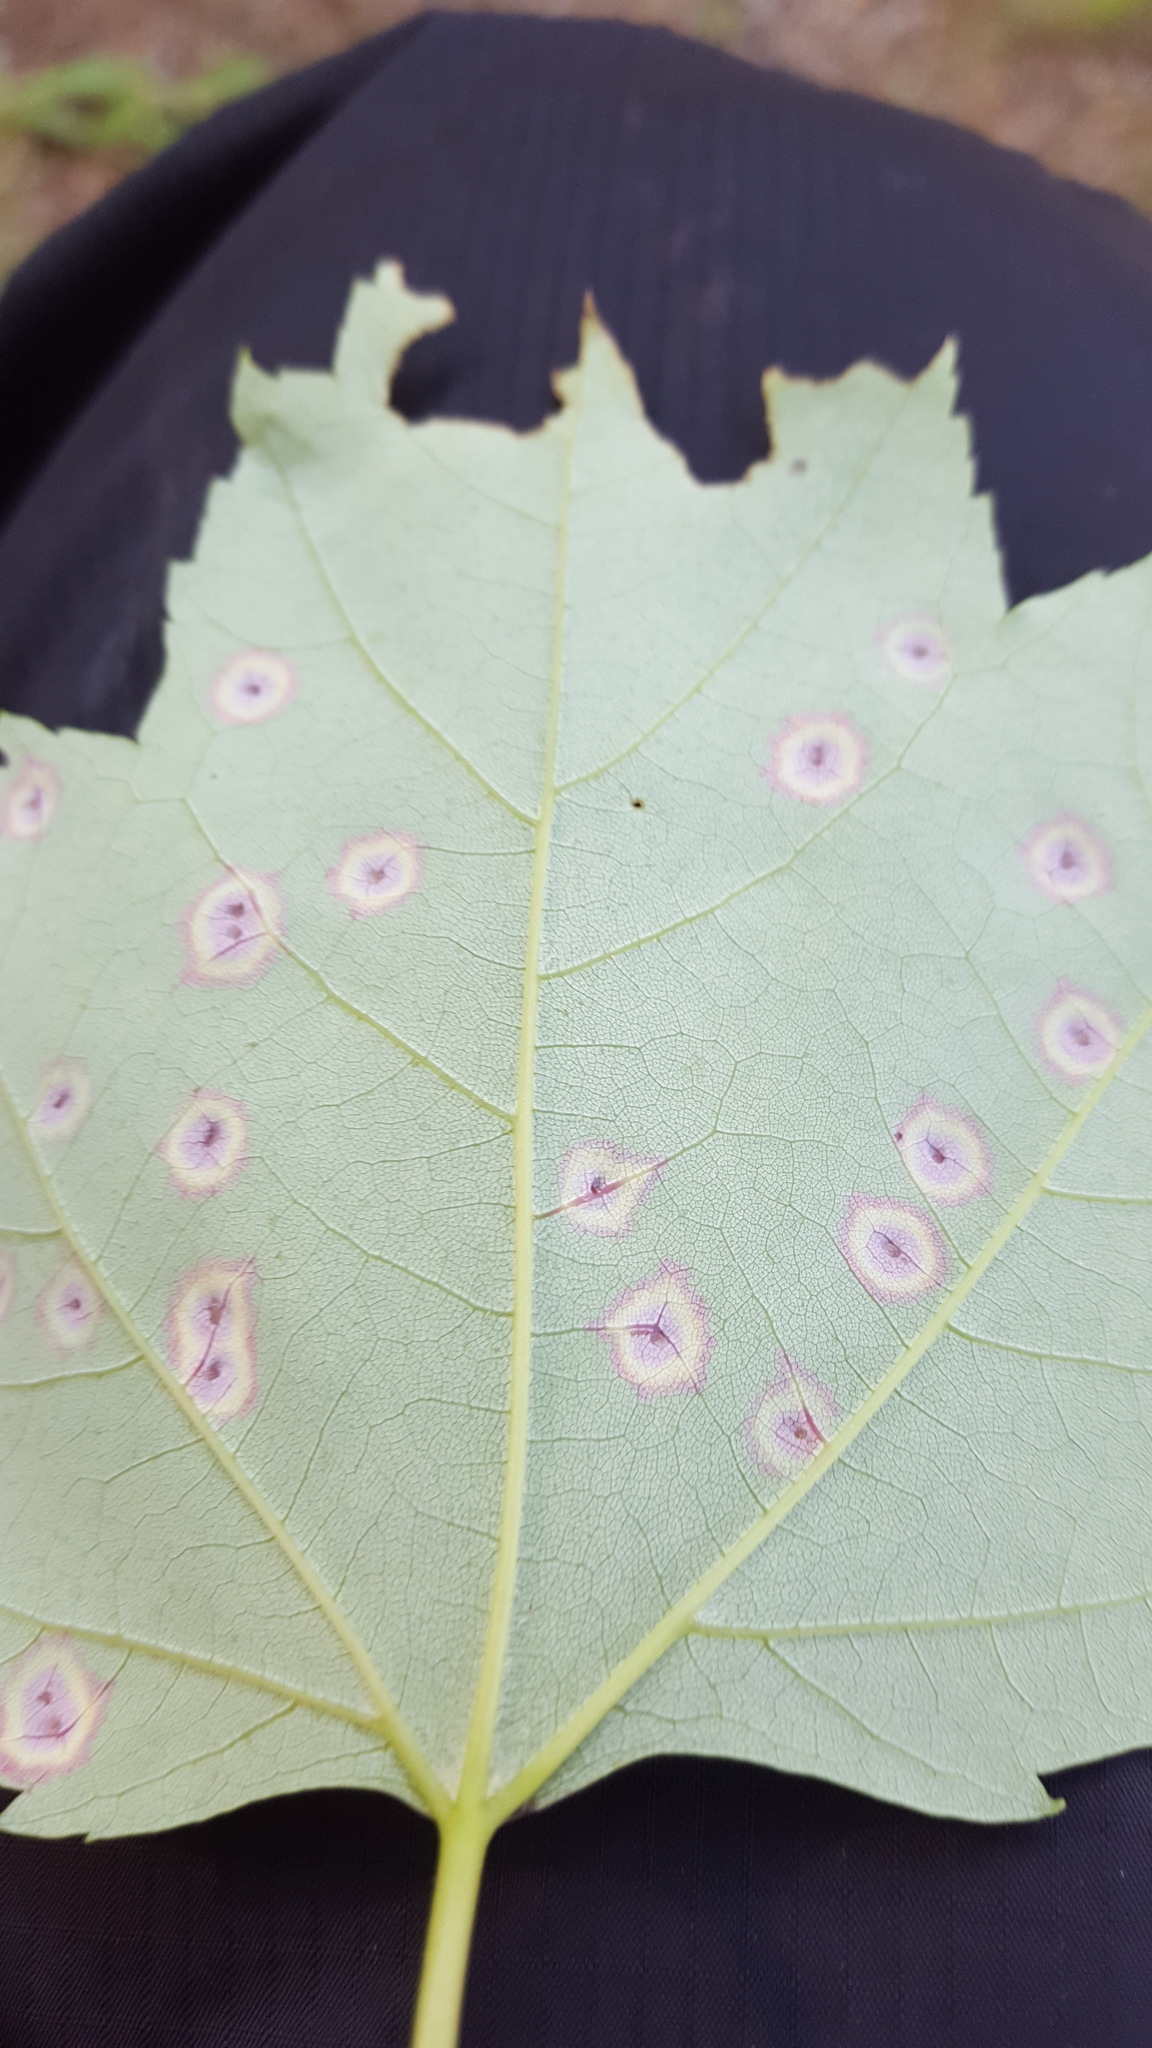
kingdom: Animalia
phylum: Arthropoda
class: Insecta
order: Diptera
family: Cecidomyiidae
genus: Acericecis
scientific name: Acericecis ocellaris
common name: Ocellate gall midge
